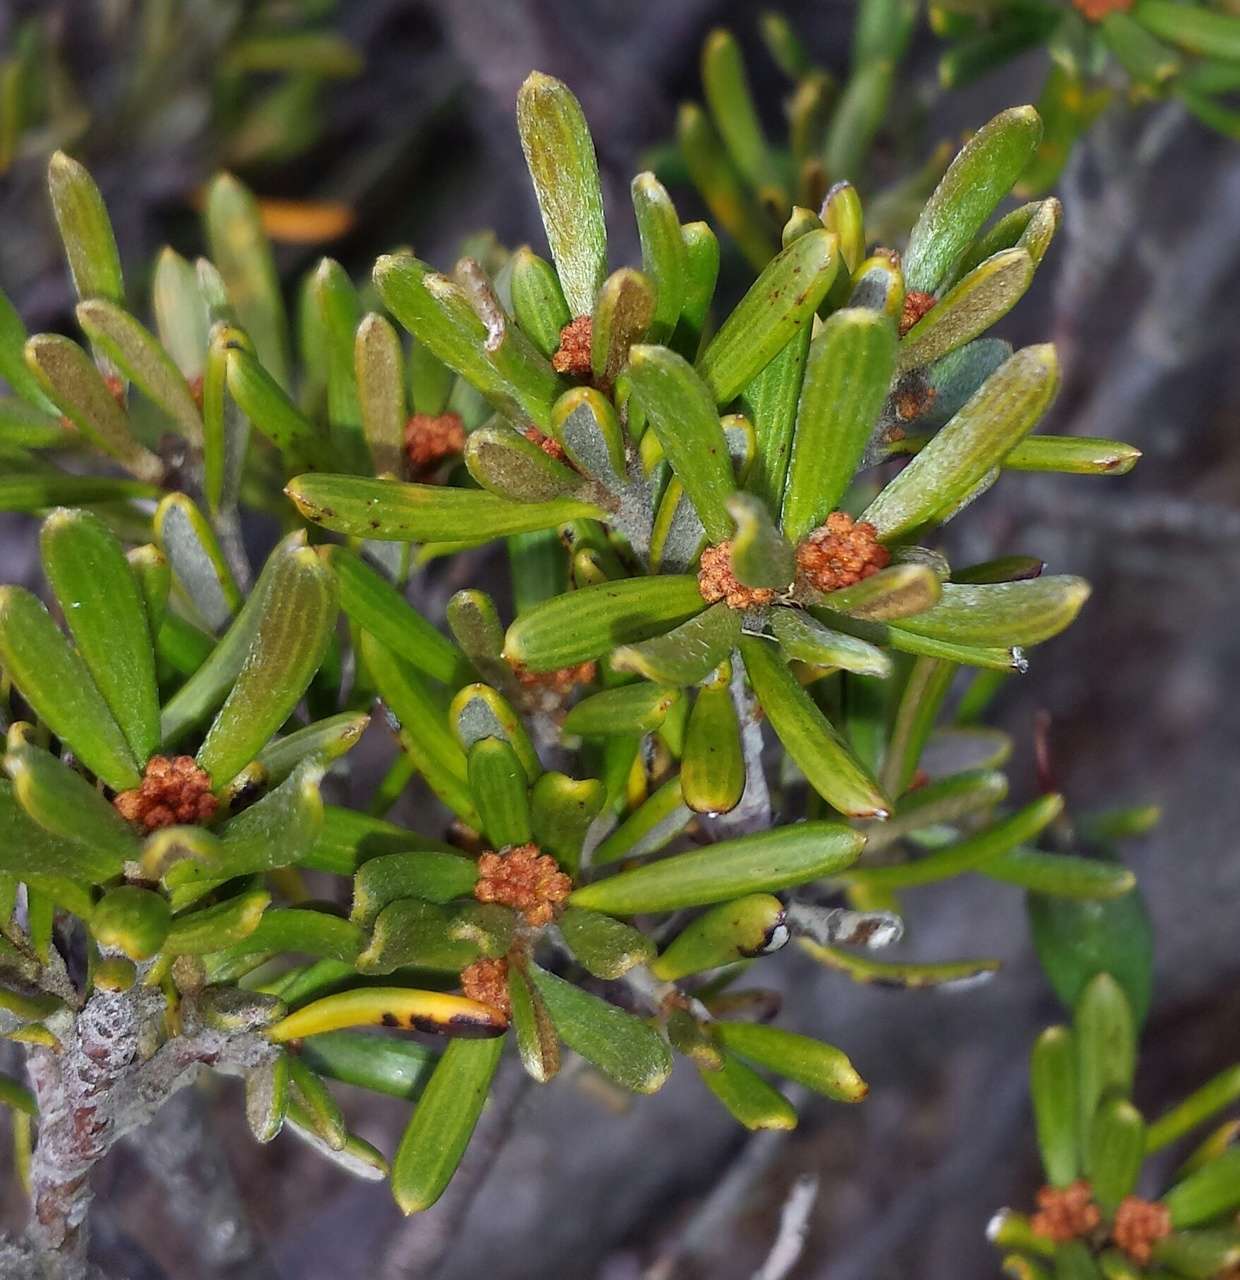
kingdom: Plantae
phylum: Tracheophyta
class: Magnoliopsida
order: Proteales
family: Proteaceae
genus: Grevillea
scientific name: Grevillea australis
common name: Alpine grevillea
